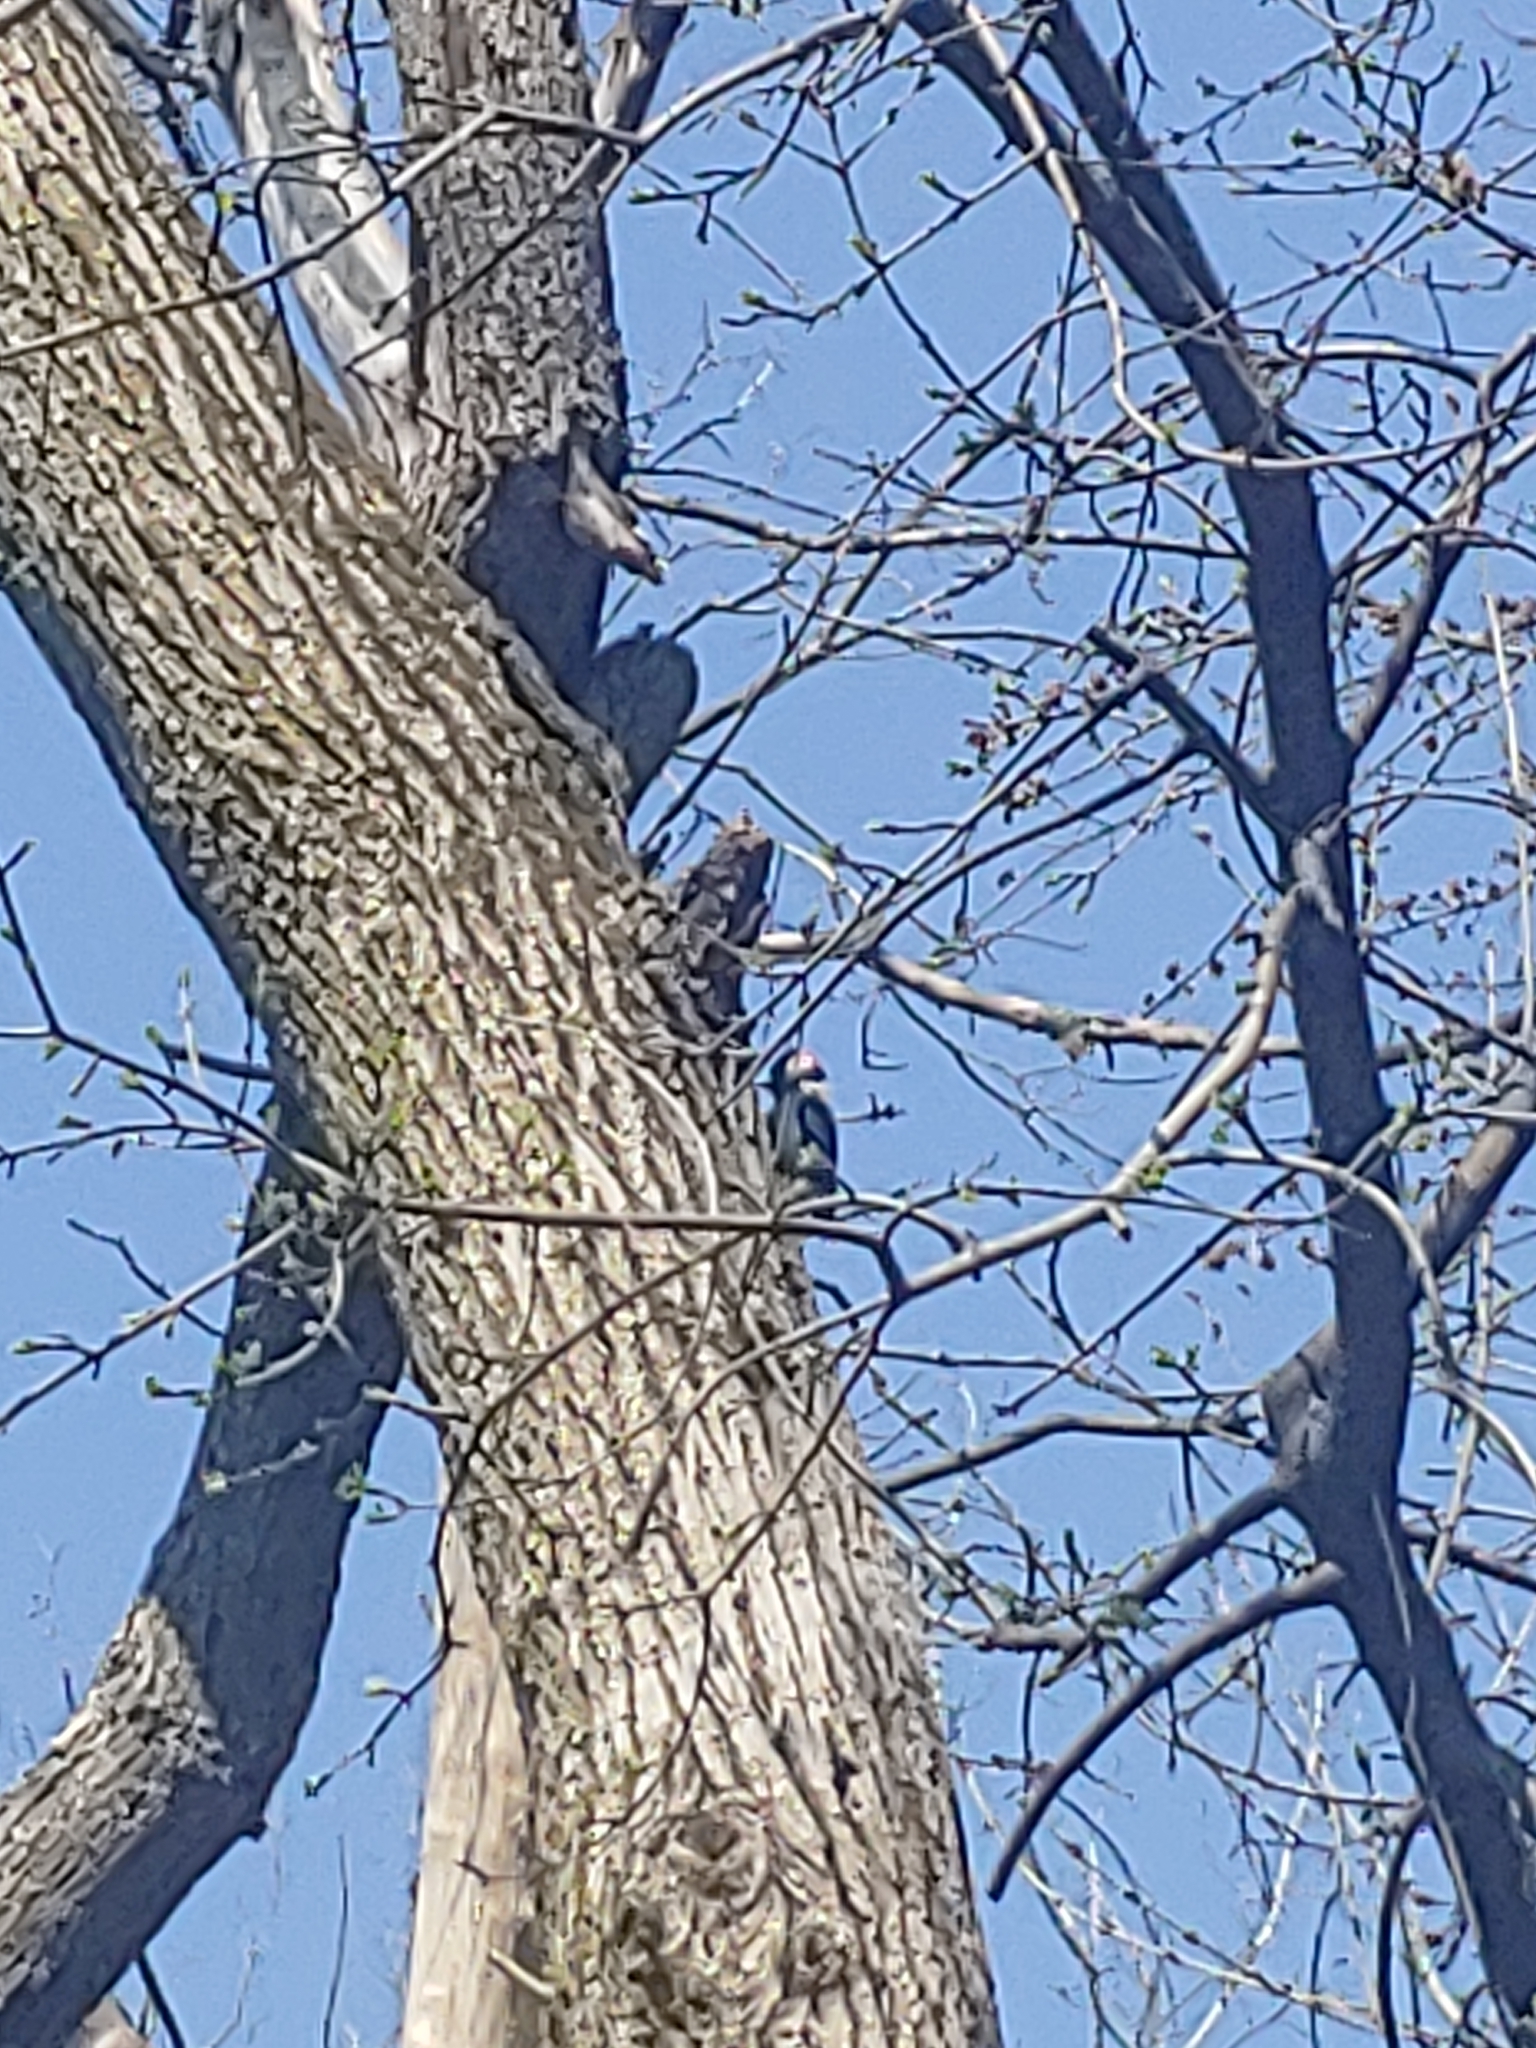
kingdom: Animalia
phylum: Chordata
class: Aves
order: Piciformes
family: Picidae
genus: Dryobates
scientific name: Dryobates pubescens
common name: Downy woodpecker
